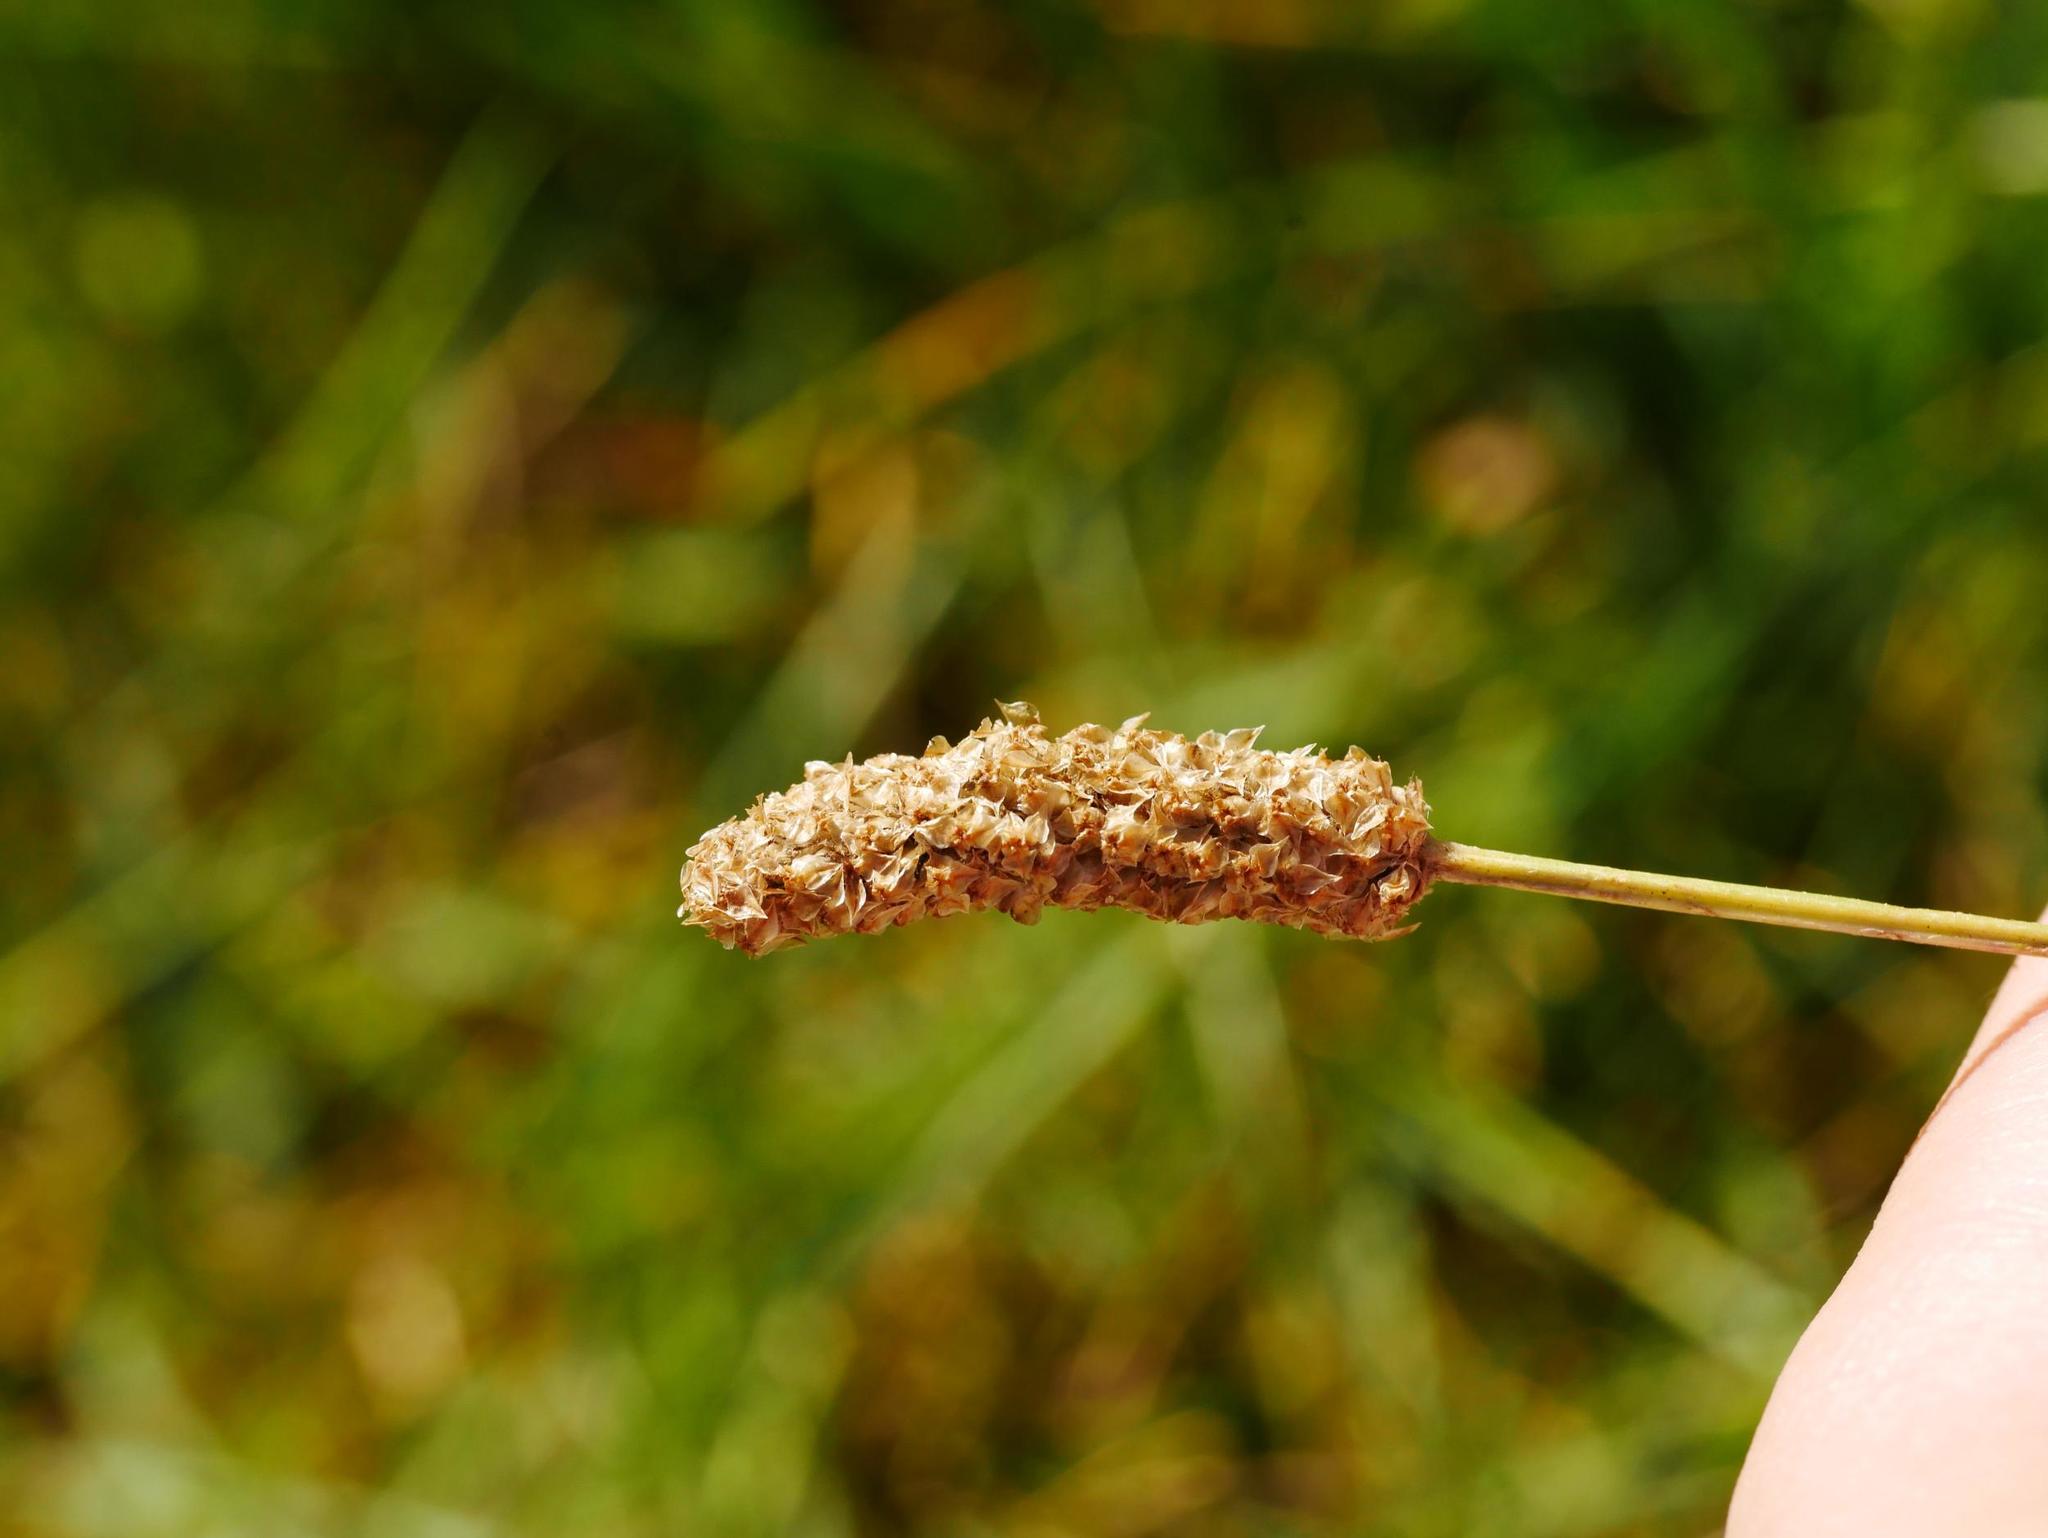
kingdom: Plantae
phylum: Tracheophyta
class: Magnoliopsida
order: Lamiales
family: Plantaginaceae
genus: Plantago
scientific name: Plantago lanceolata
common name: Ribwort plantain
